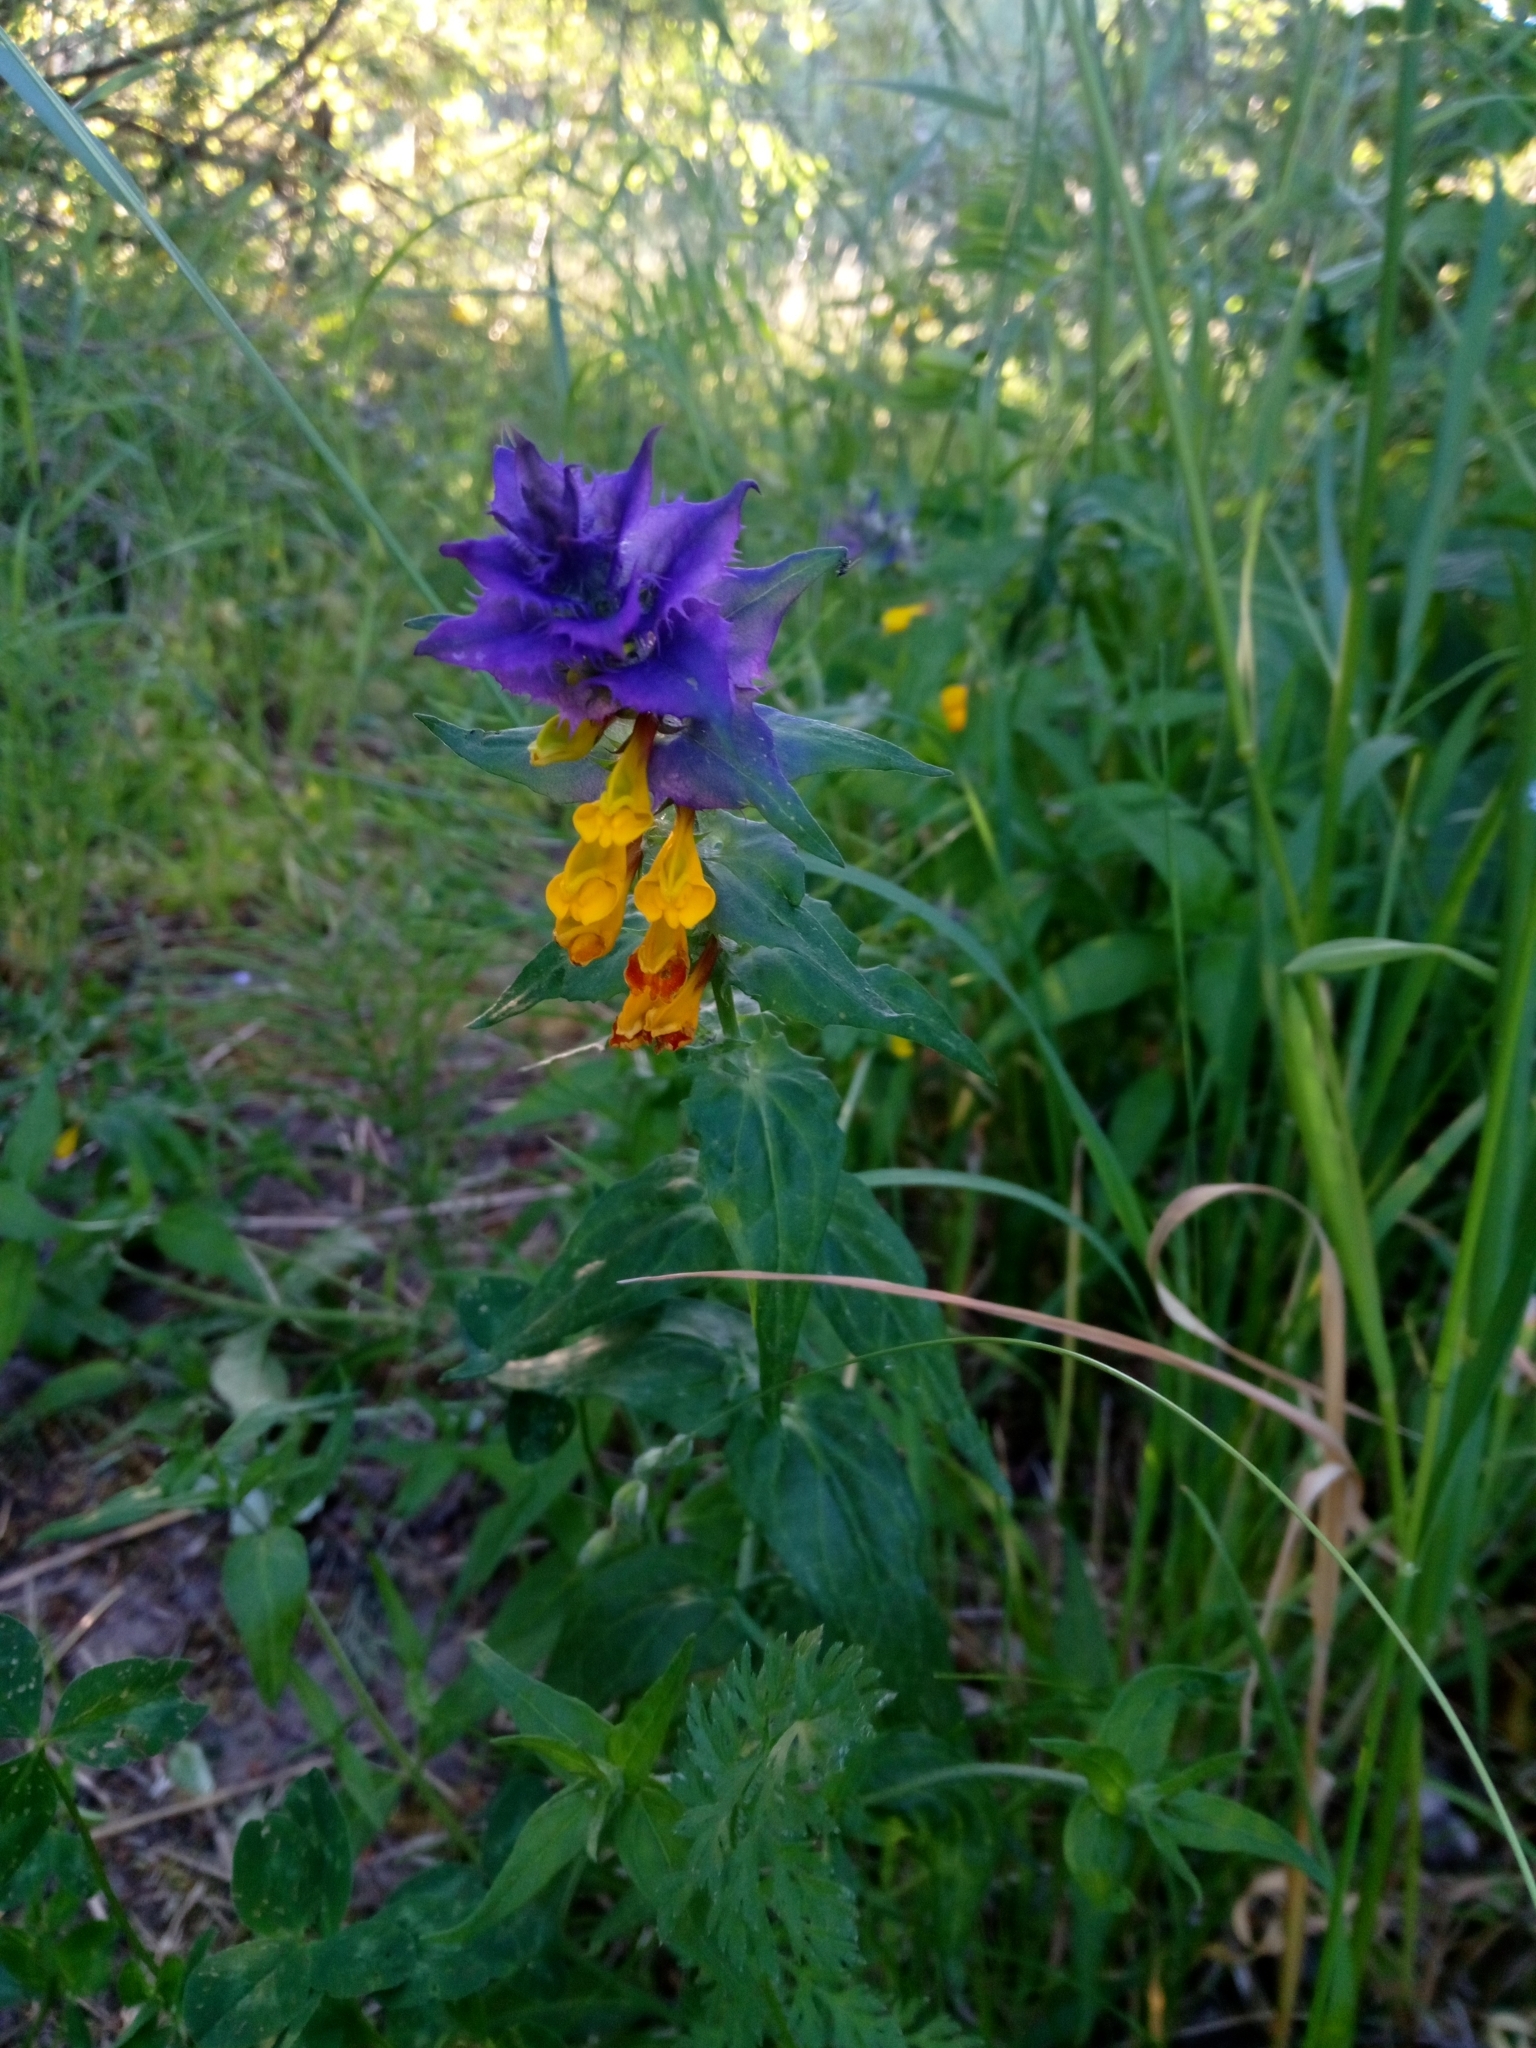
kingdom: Plantae
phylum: Tracheophyta
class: Magnoliopsida
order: Lamiales
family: Orobanchaceae
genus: Melampyrum
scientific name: Melampyrum nemorosum
